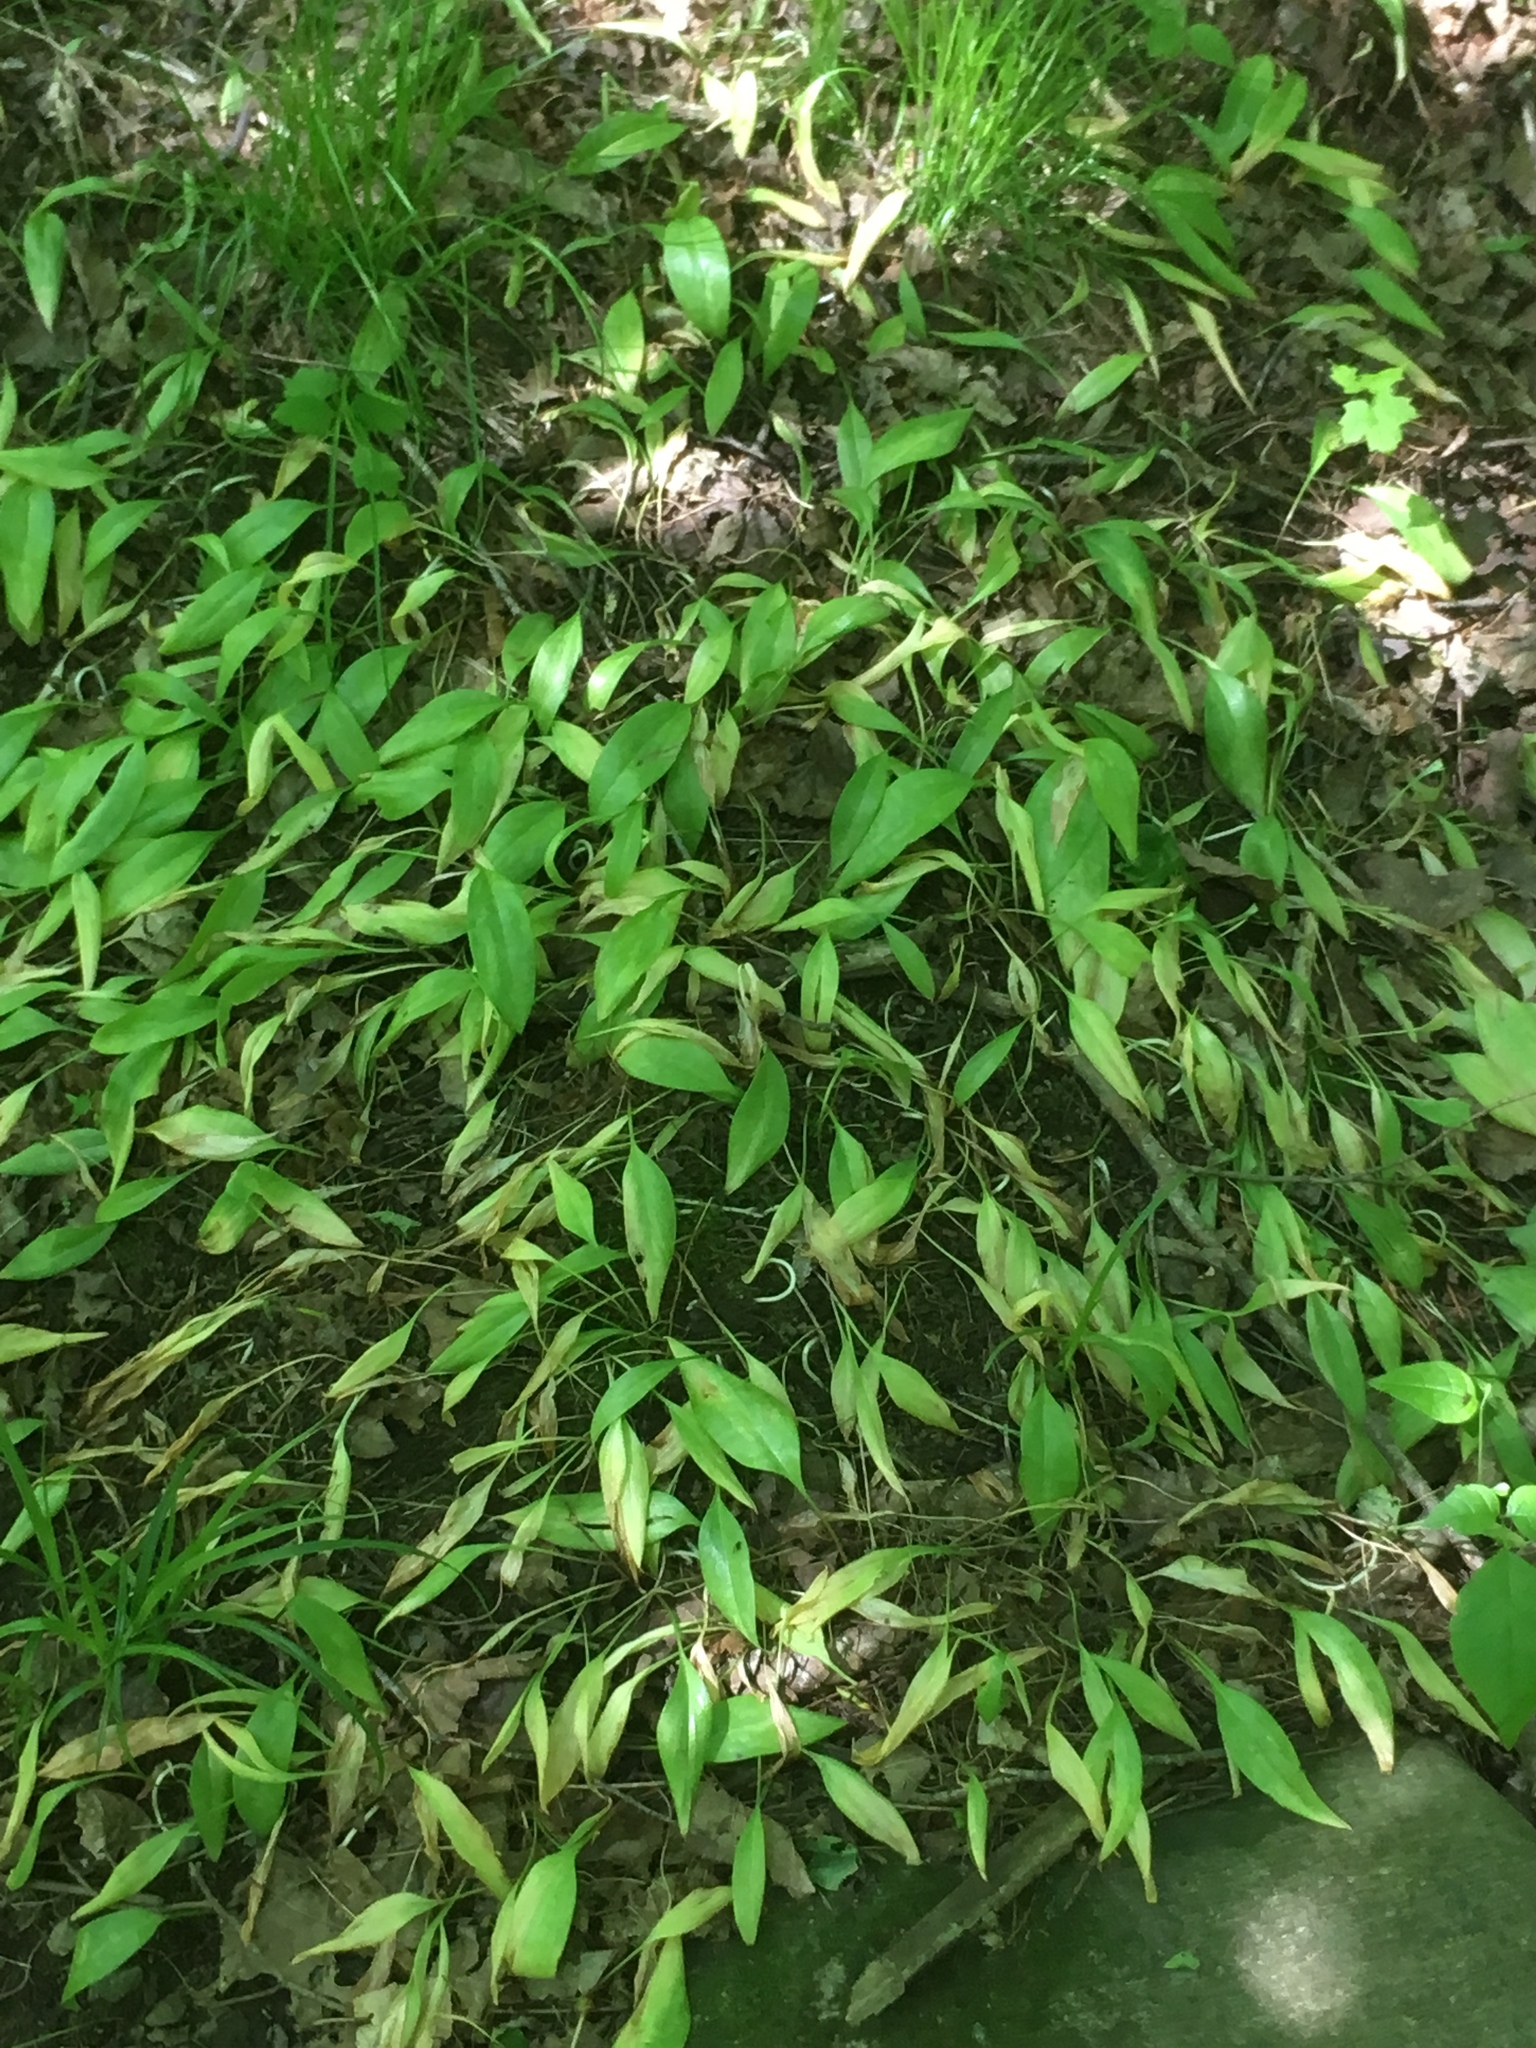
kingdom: Plantae
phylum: Tracheophyta
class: Liliopsida
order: Liliales
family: Liliaceae
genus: Erythronium
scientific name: Erythronium americanum
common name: Yellow adder's-tongue
